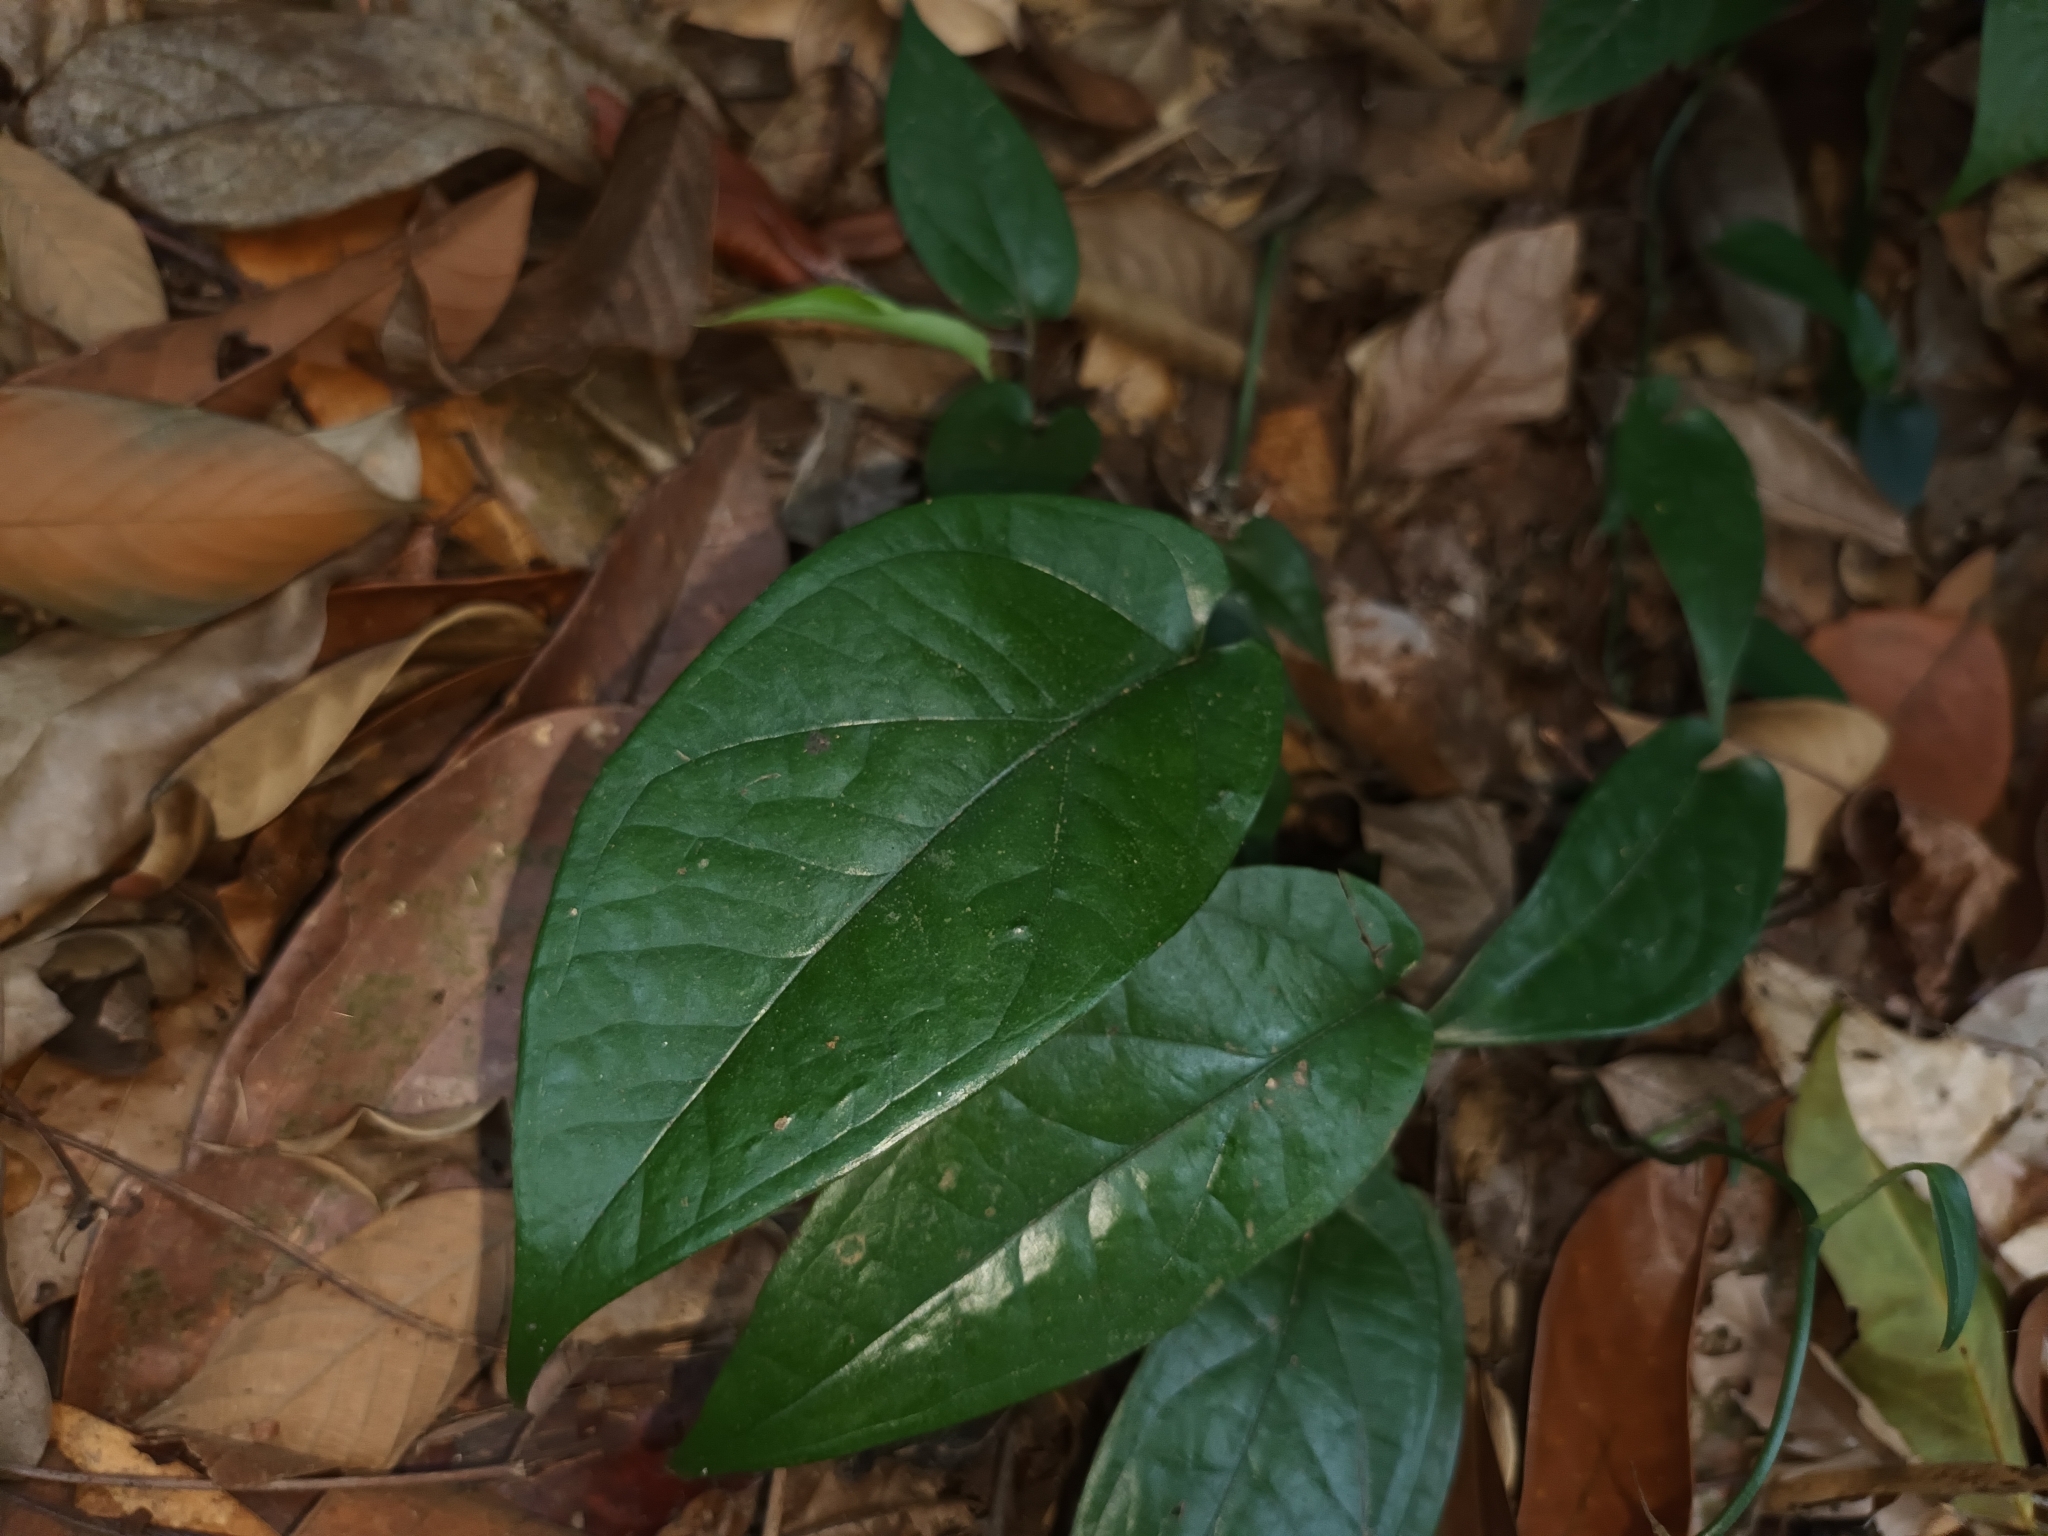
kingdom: Plantae
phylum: Tracheophyta
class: Liliopsida
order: Alismatales
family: Araceae
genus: Amydrium
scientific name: Amydrium medium
